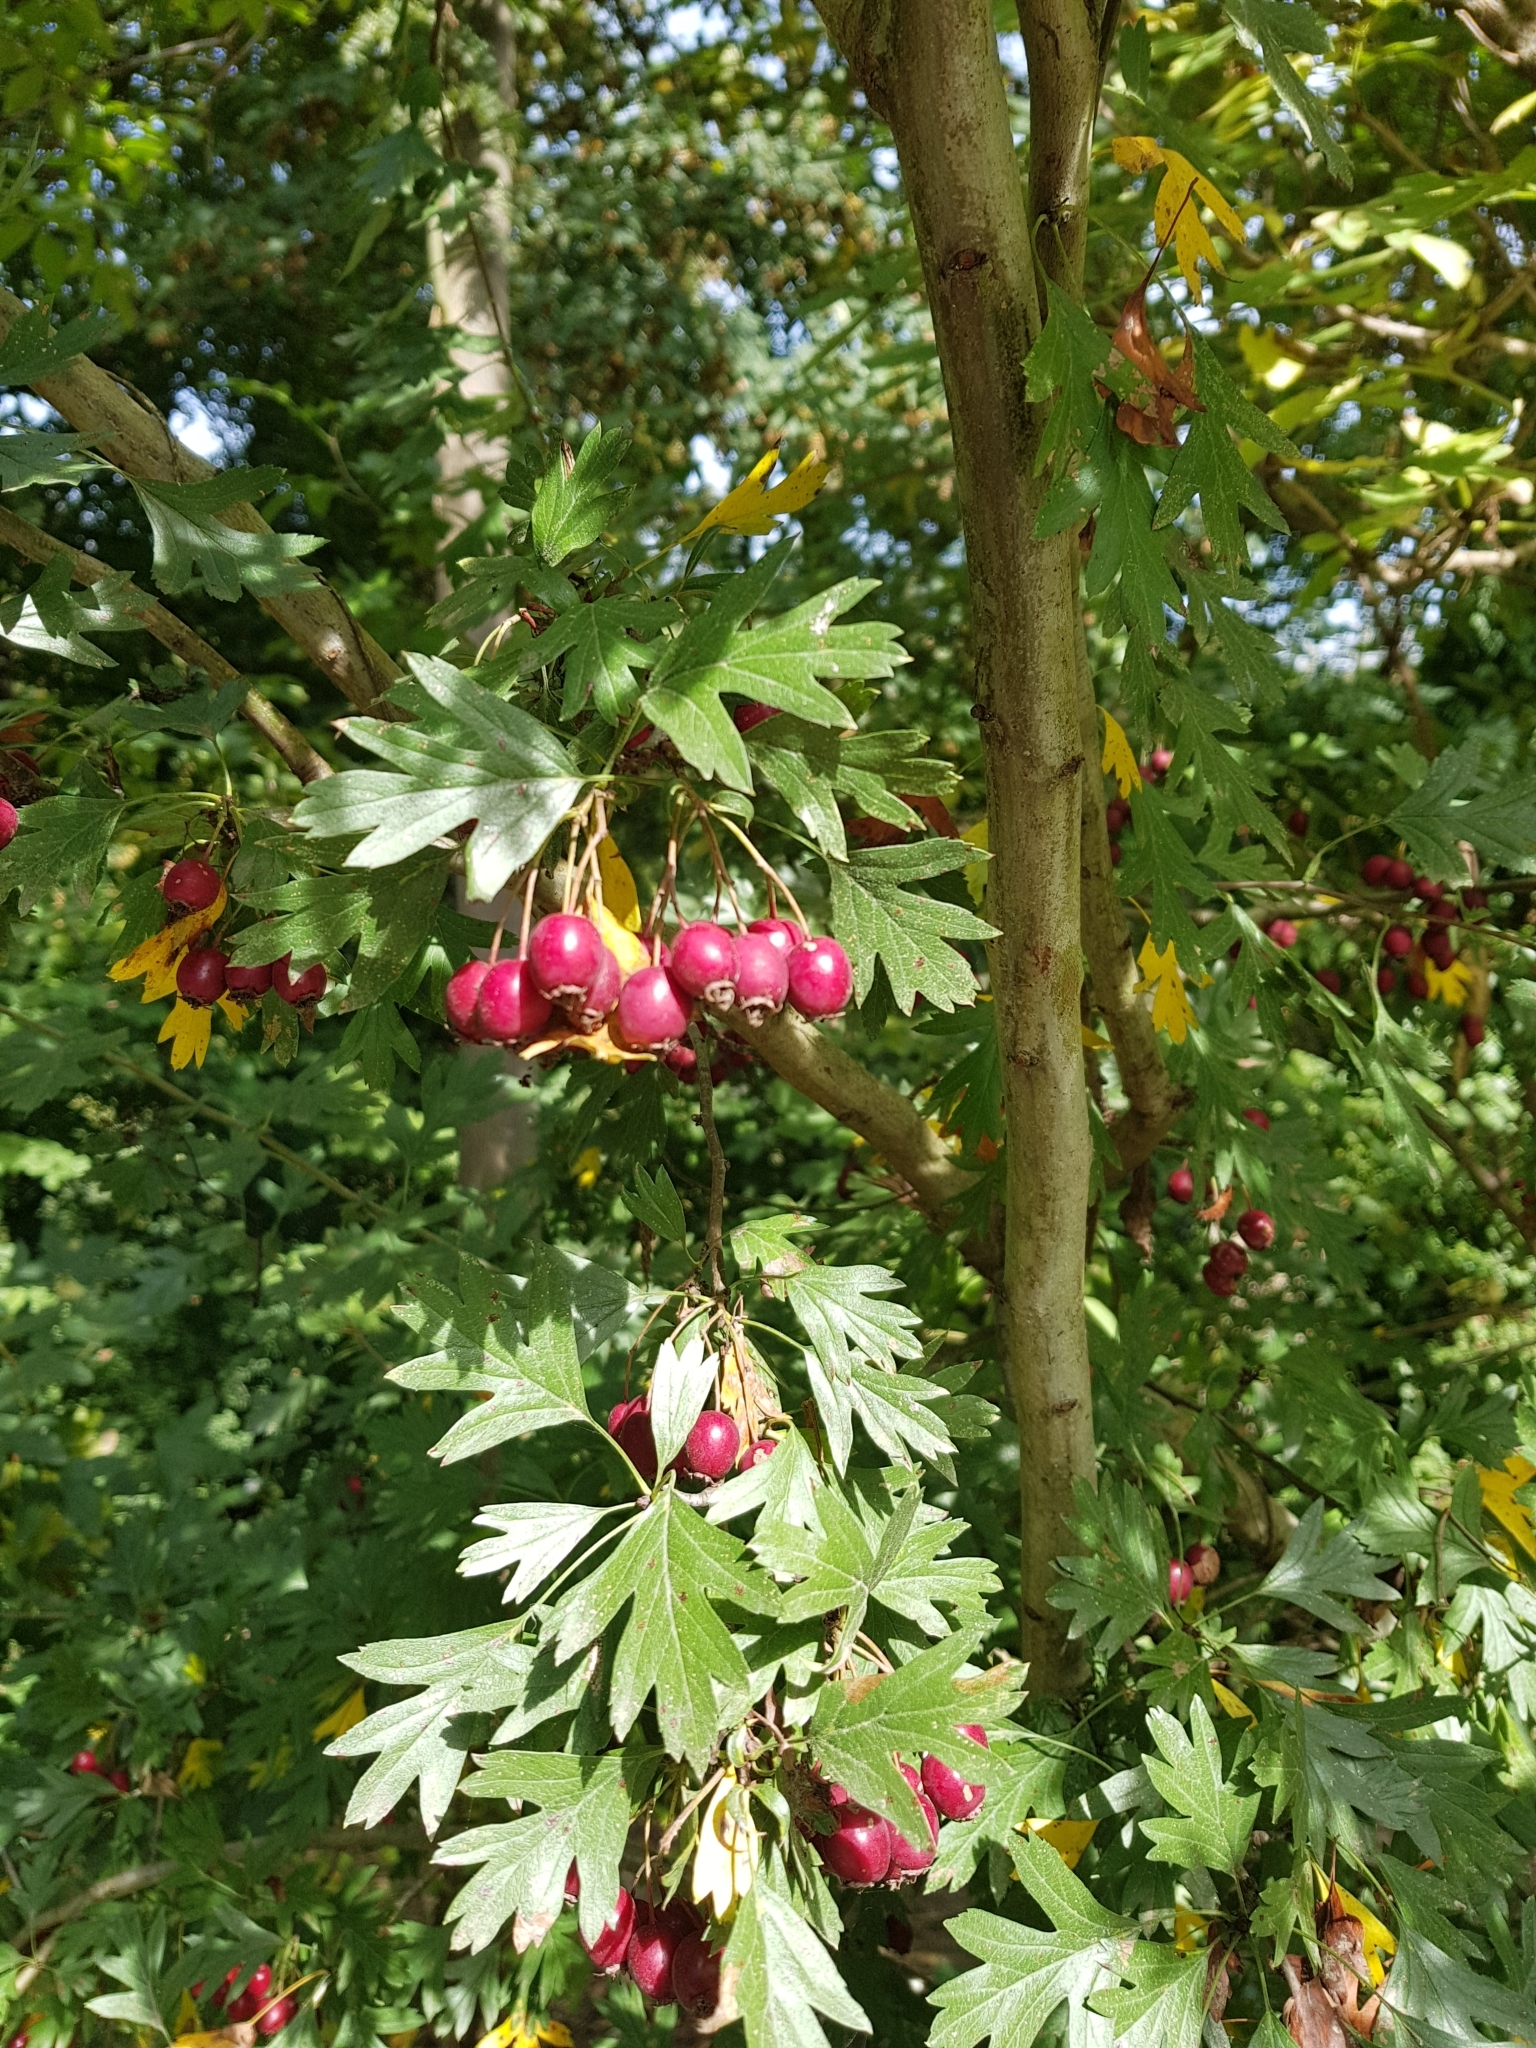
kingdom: Plantae
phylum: Tracheophyta
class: Magnoliopsida
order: Rosales
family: Rosaceae
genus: Crataegus
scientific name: Crataegus monogyna
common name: Hawthorn
